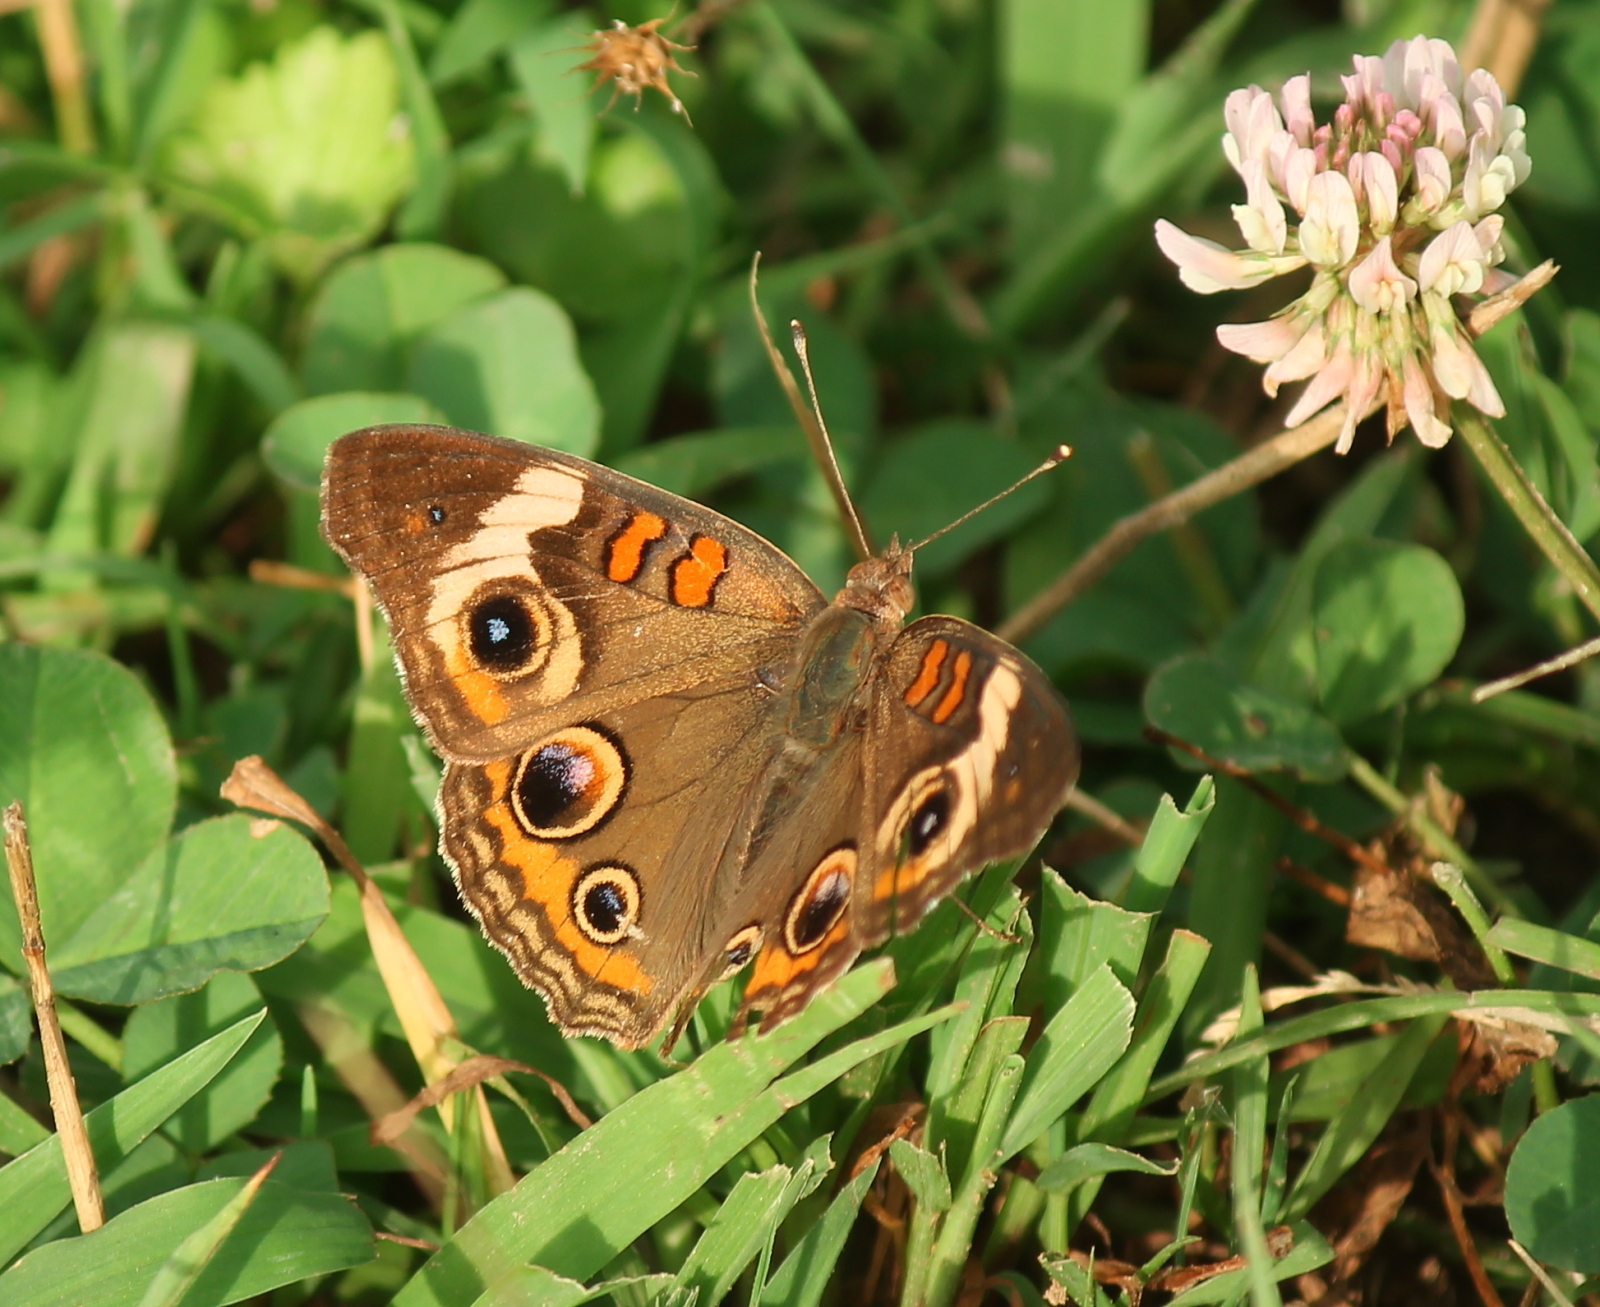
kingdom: Animalia
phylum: Arthropoda
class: Insecta
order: Lepidoptera
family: Nymphalidae
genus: Junonia
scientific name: Junonia coenia
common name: Common buckeye
